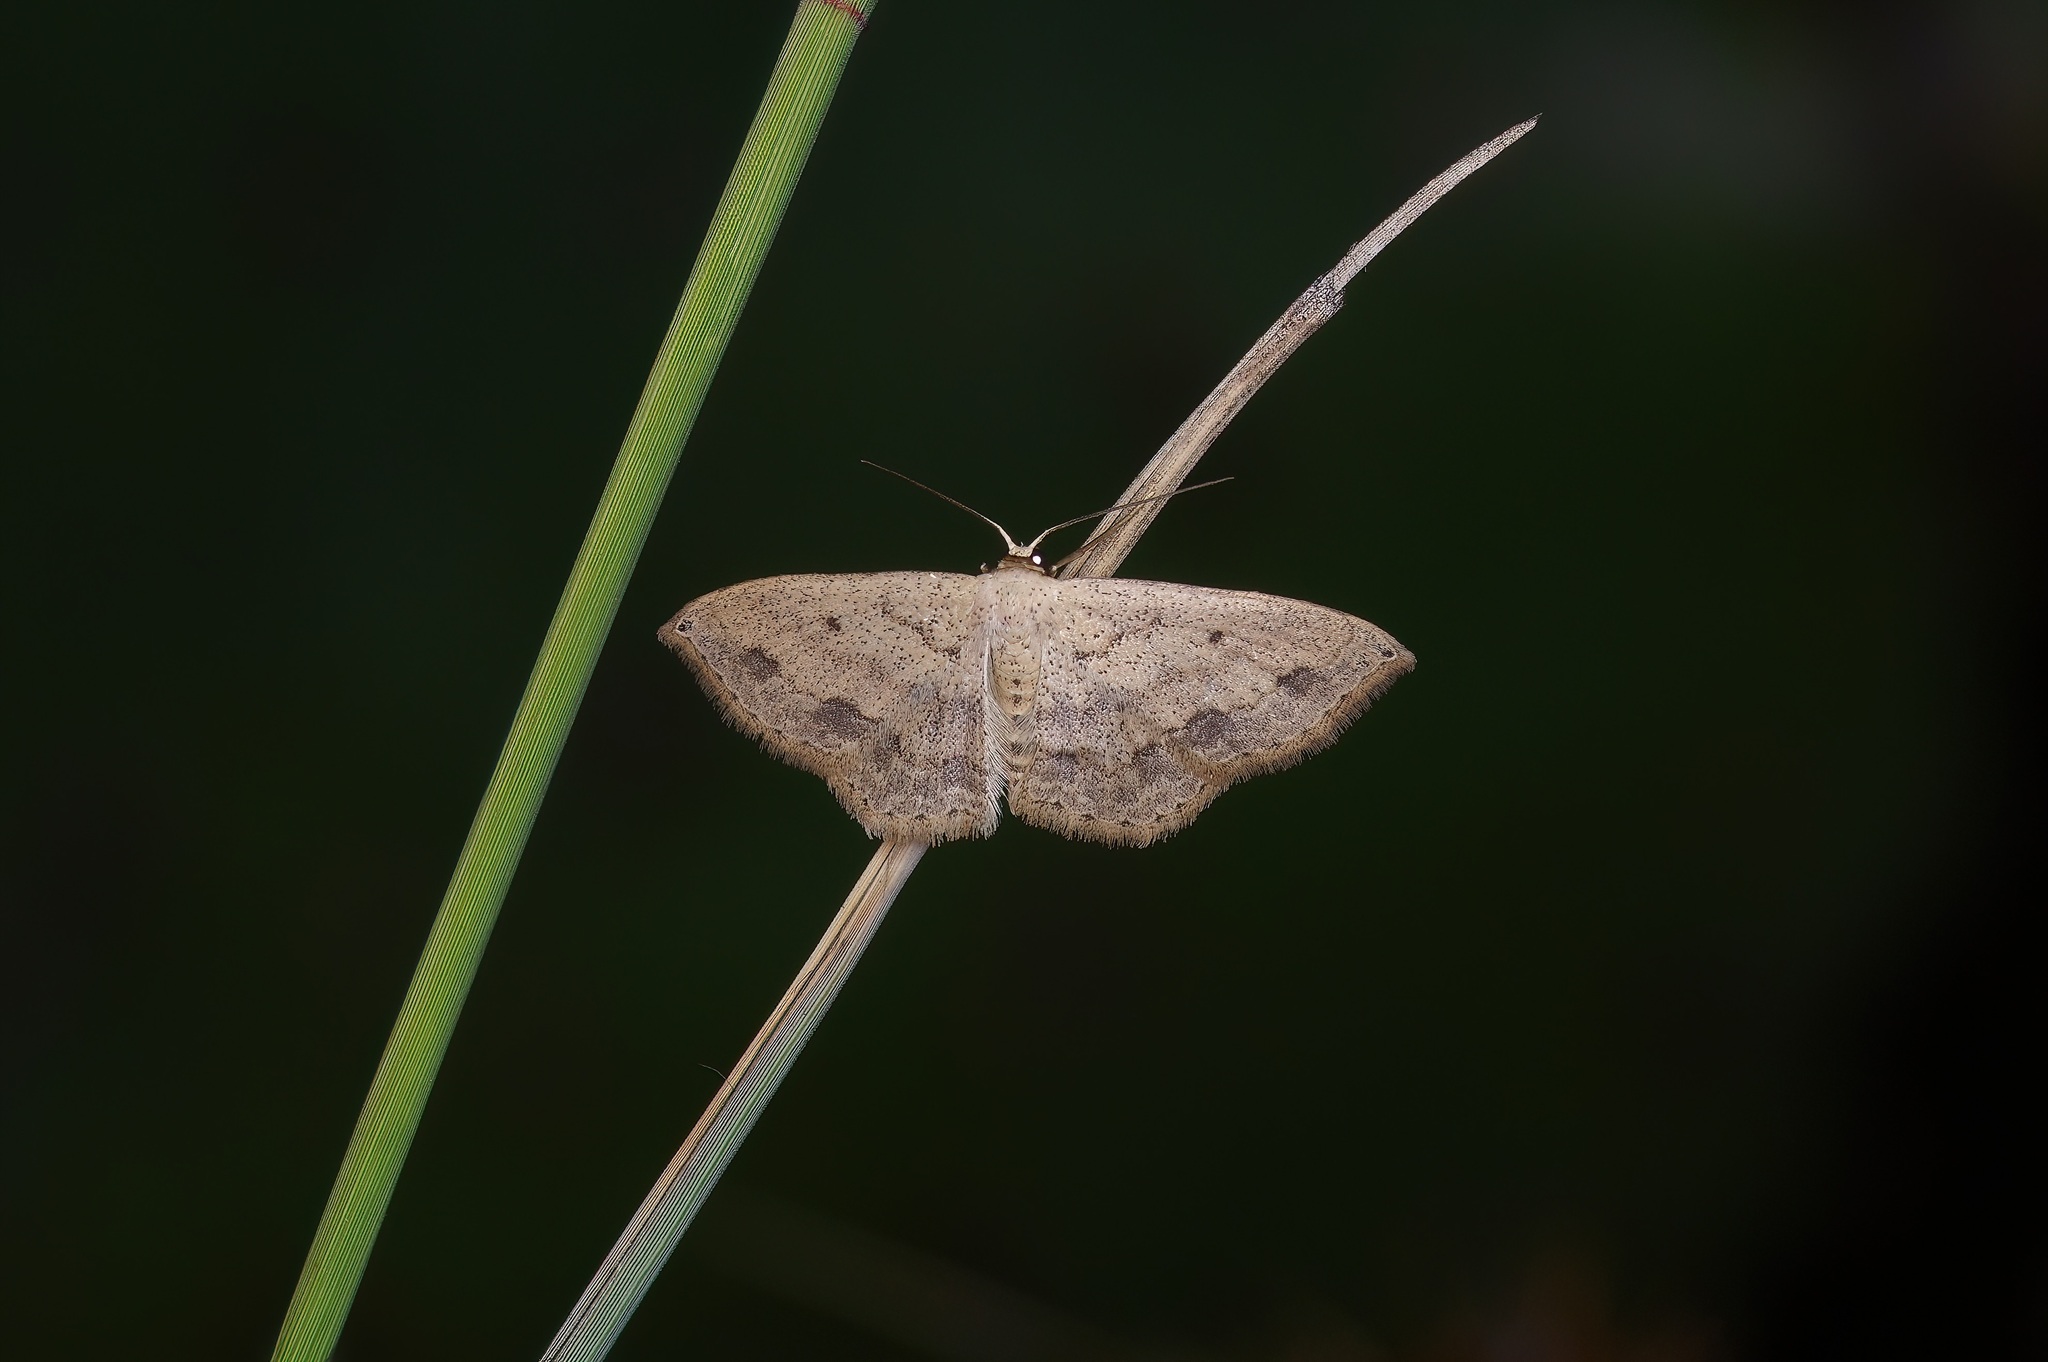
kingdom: Animalia
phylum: Arthropoda
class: Insecta
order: Lepidoptera
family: Geometridae
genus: Scopula
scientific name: Scopula umbilicata
